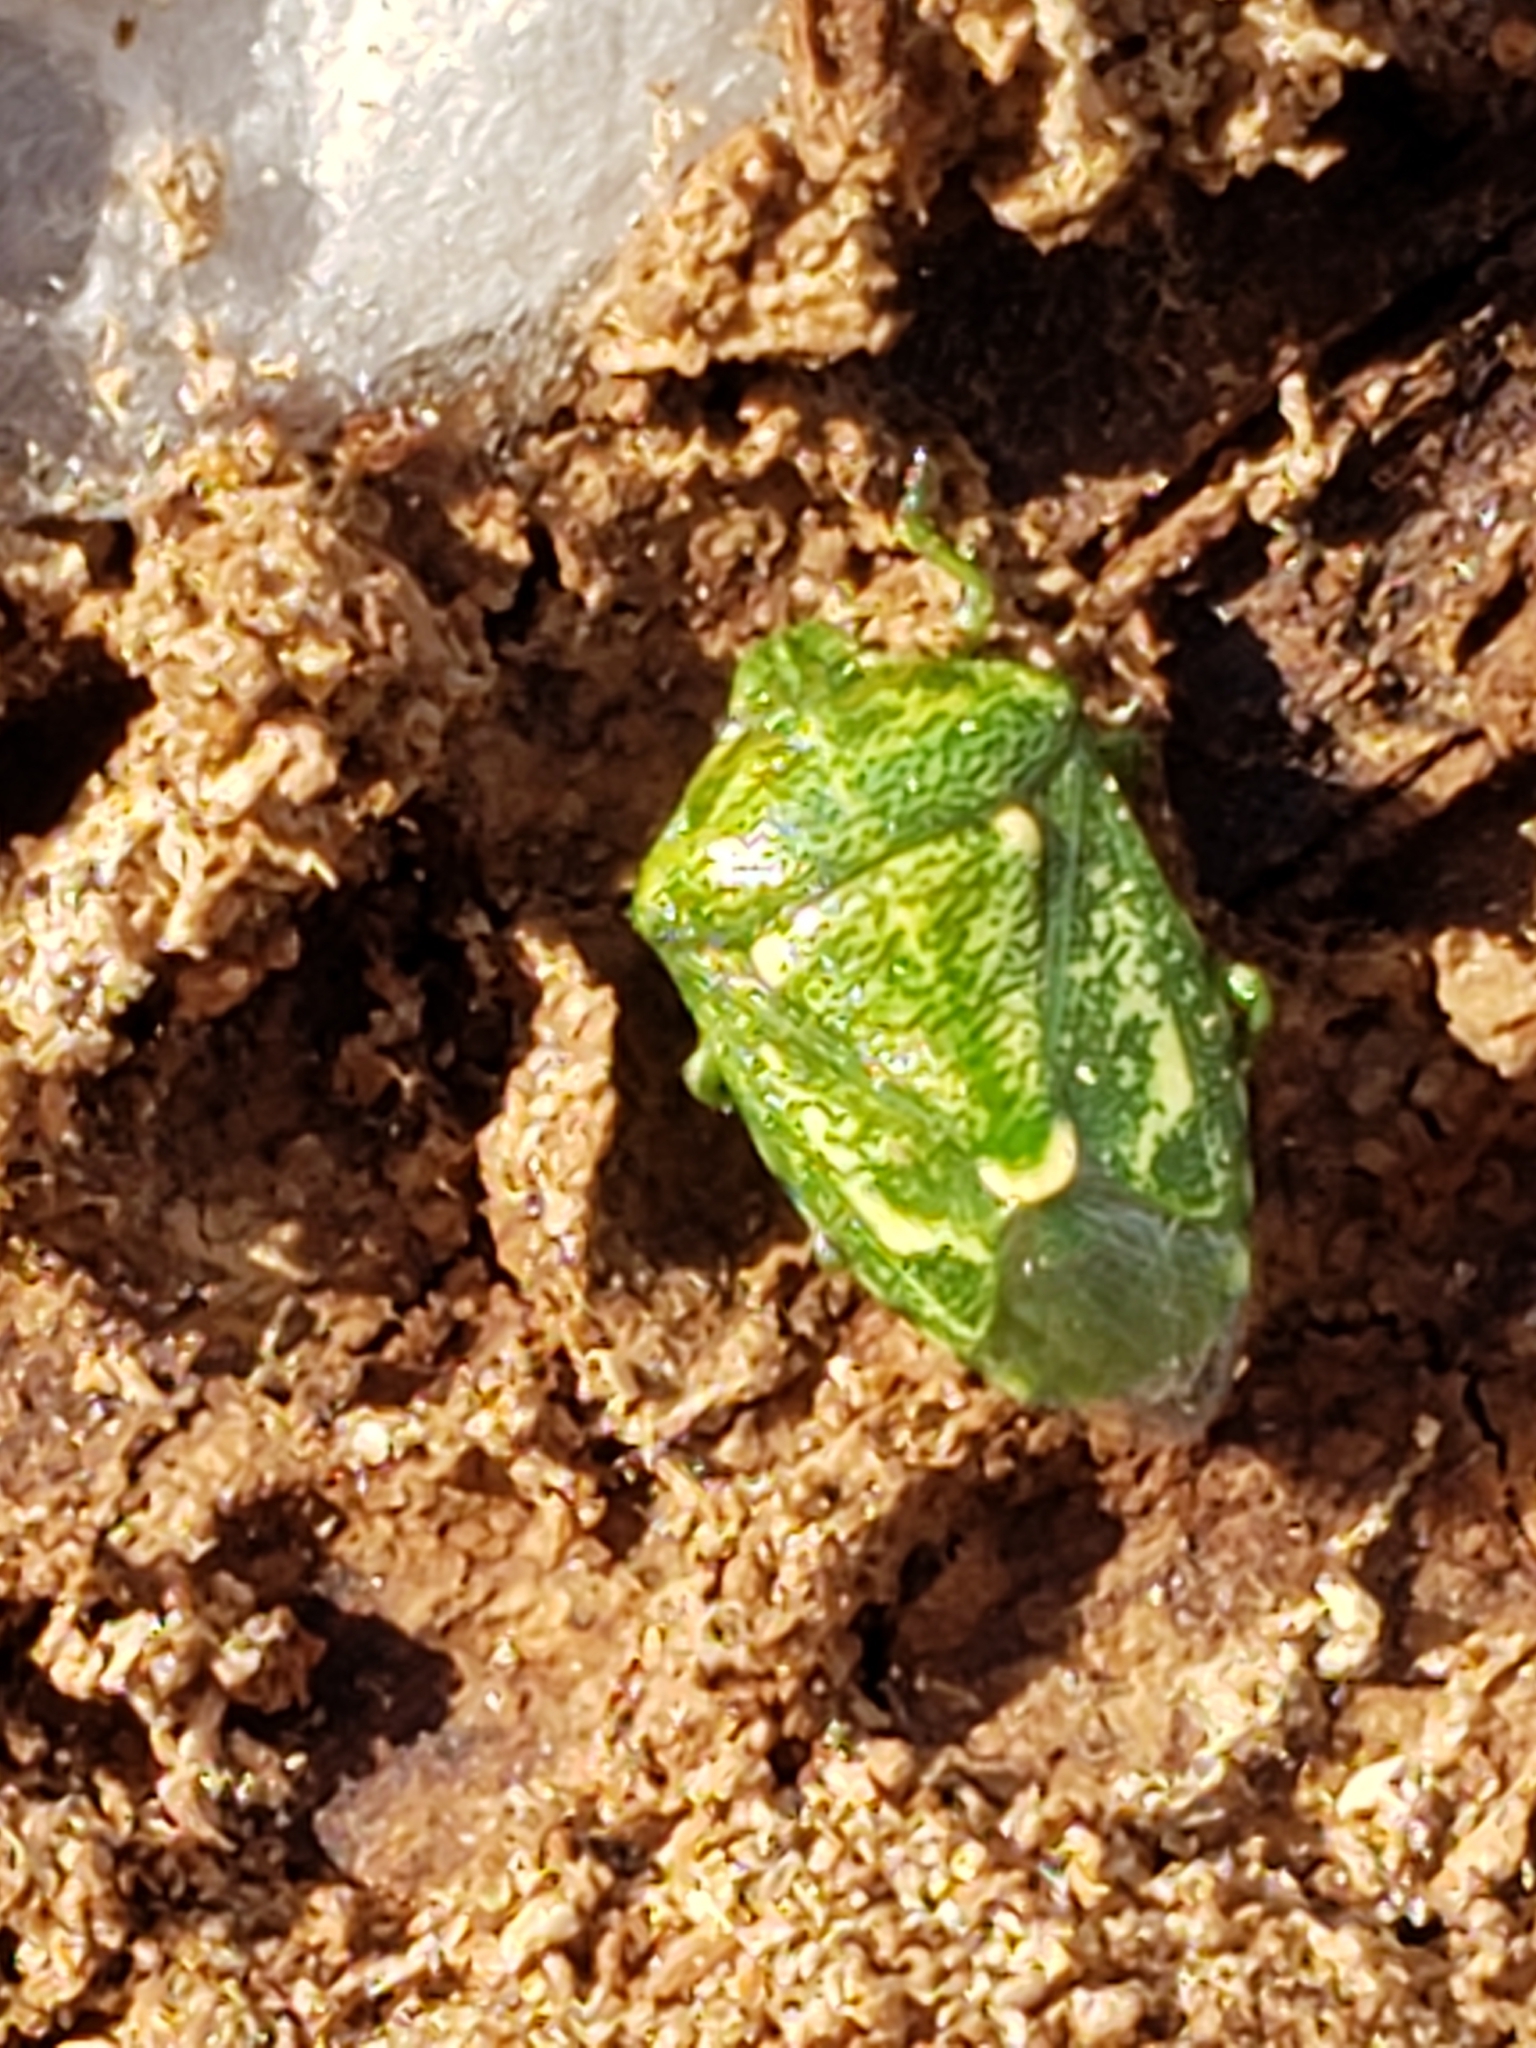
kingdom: Animalia
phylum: Arthropoda
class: Insecta
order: Hemiptera
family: Pentatomidae
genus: Banasa
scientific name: Banasa euchlora
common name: Cedar berry bug
